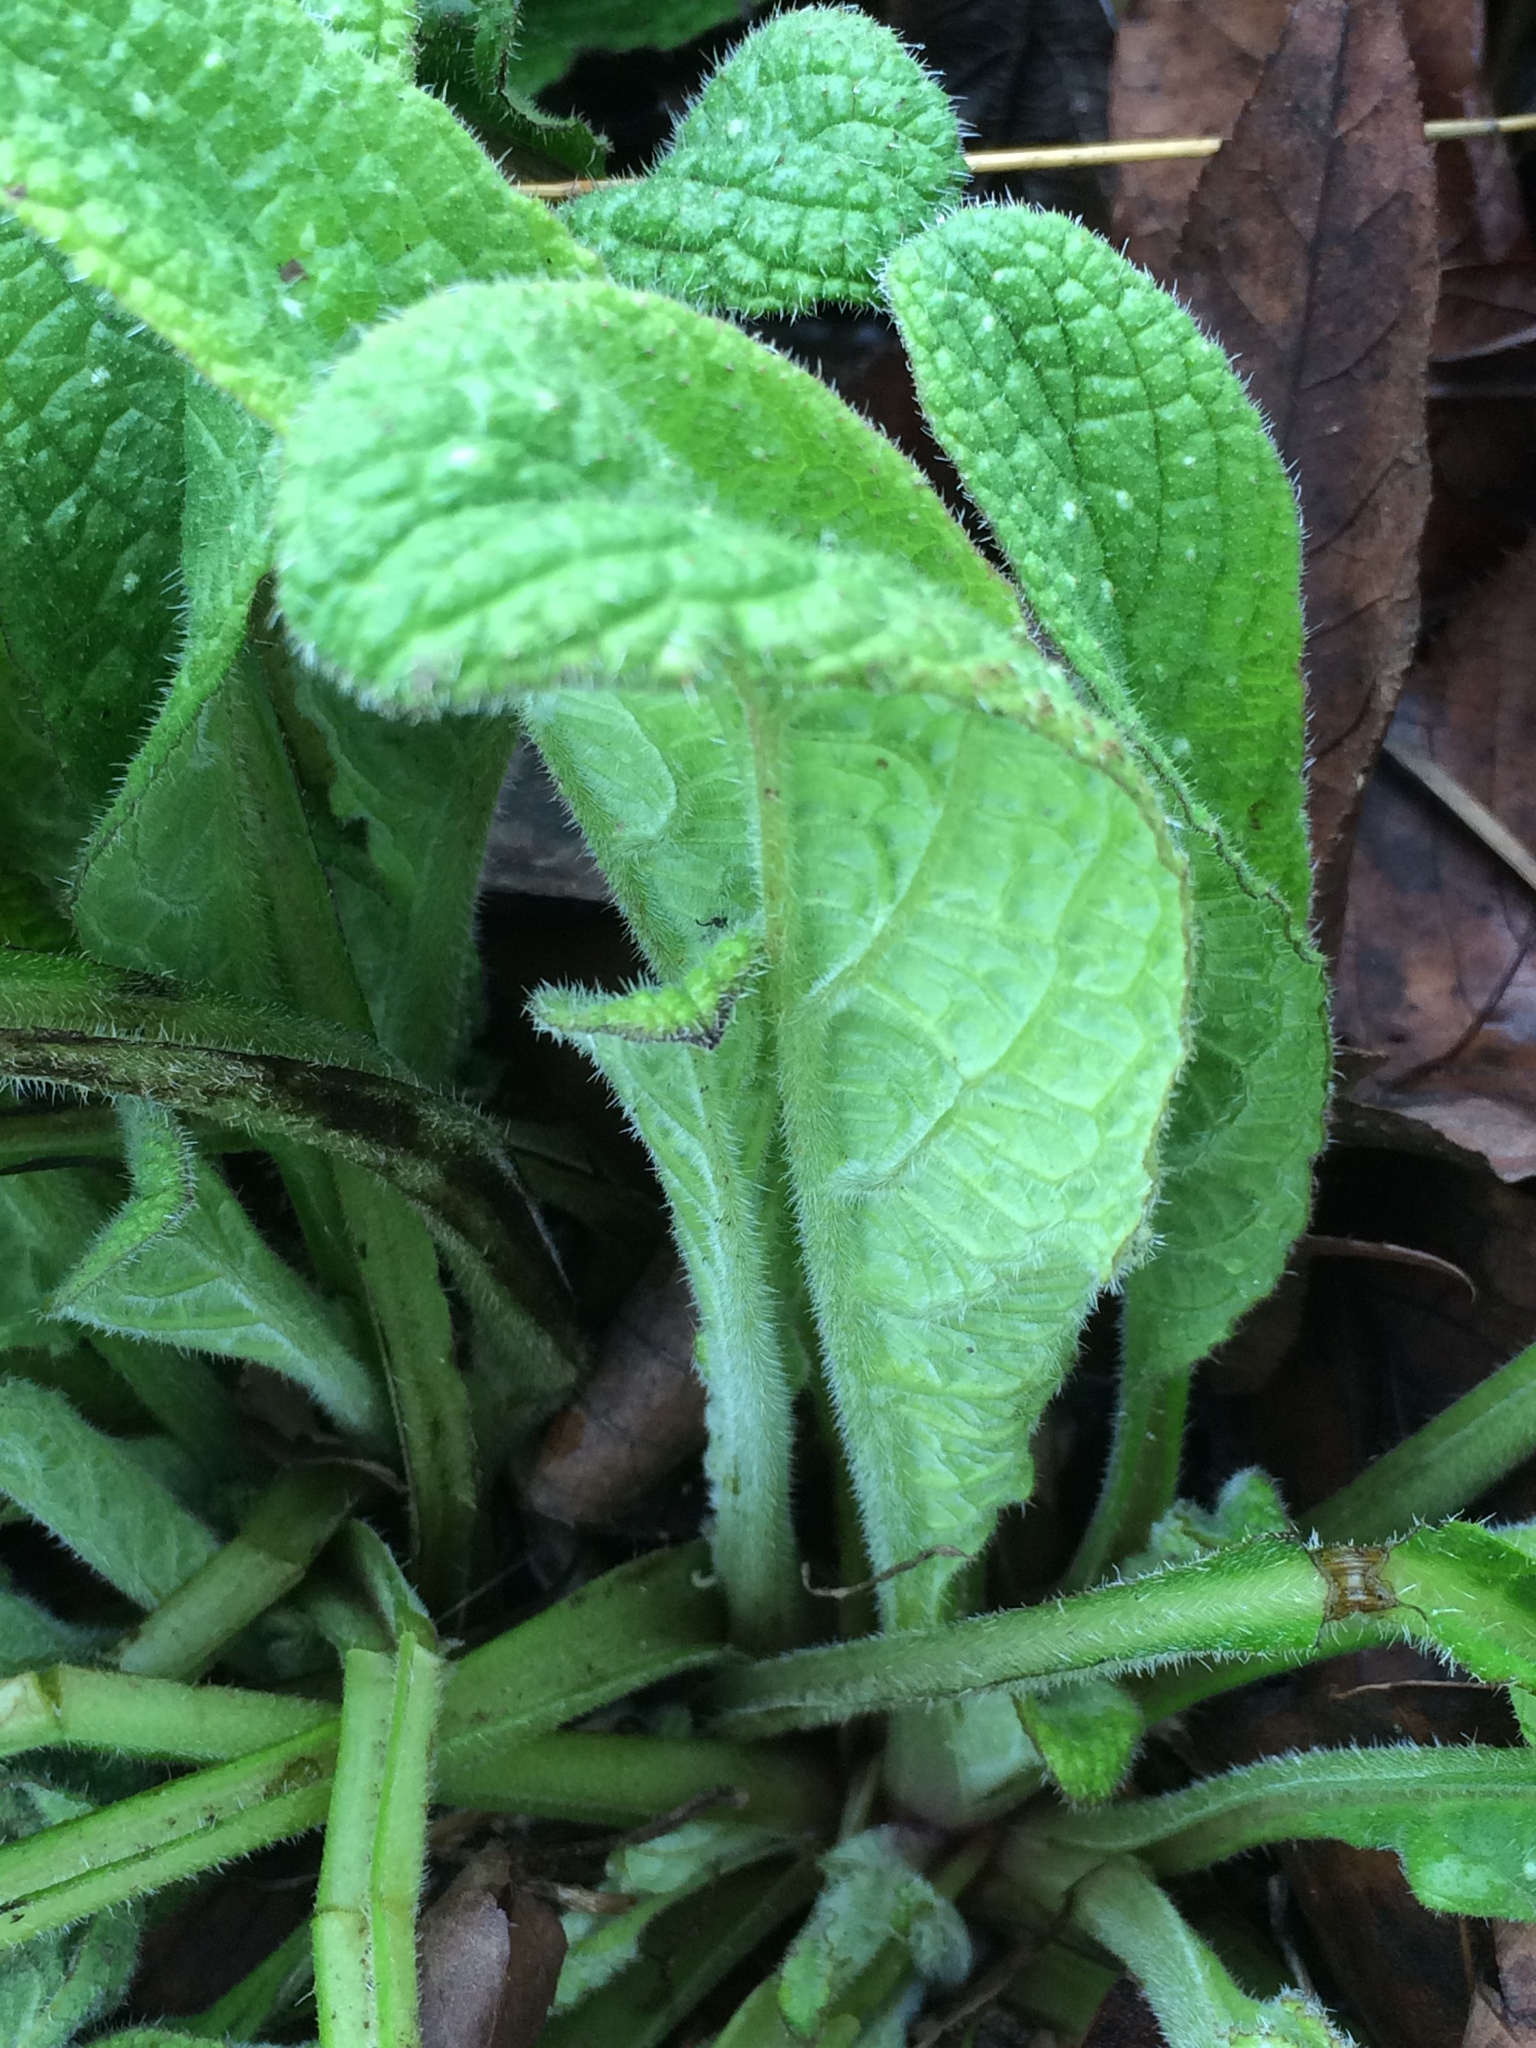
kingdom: Plantae
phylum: Tracheophyta
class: Magnoliopsida
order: Boraginales
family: Boraginaceae
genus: Pentaglottis
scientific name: Pentaglottis sempervirens
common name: Green alkanet
